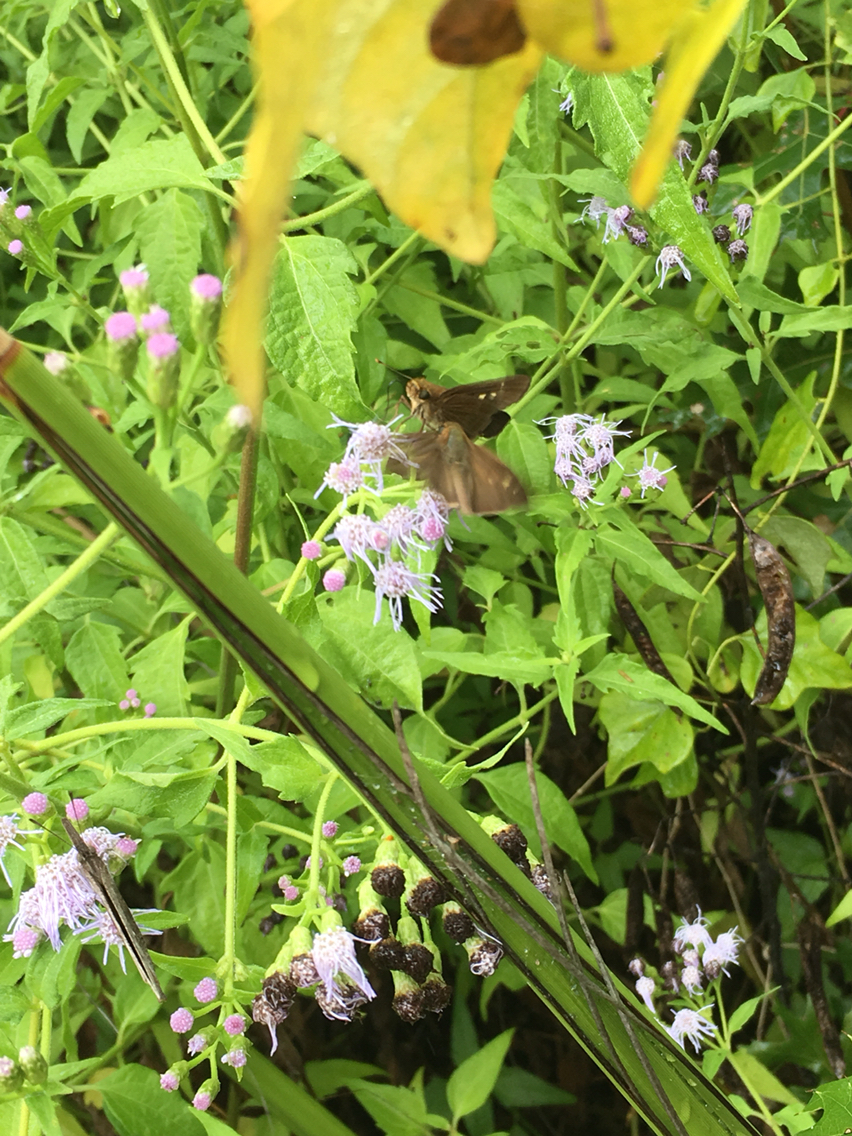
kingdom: Animalia
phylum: Arthropoda
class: Insecta
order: Lepidoptera
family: Hesperiidae
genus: Panoquina
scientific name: Panoquina ocola
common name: Ocola skipper
